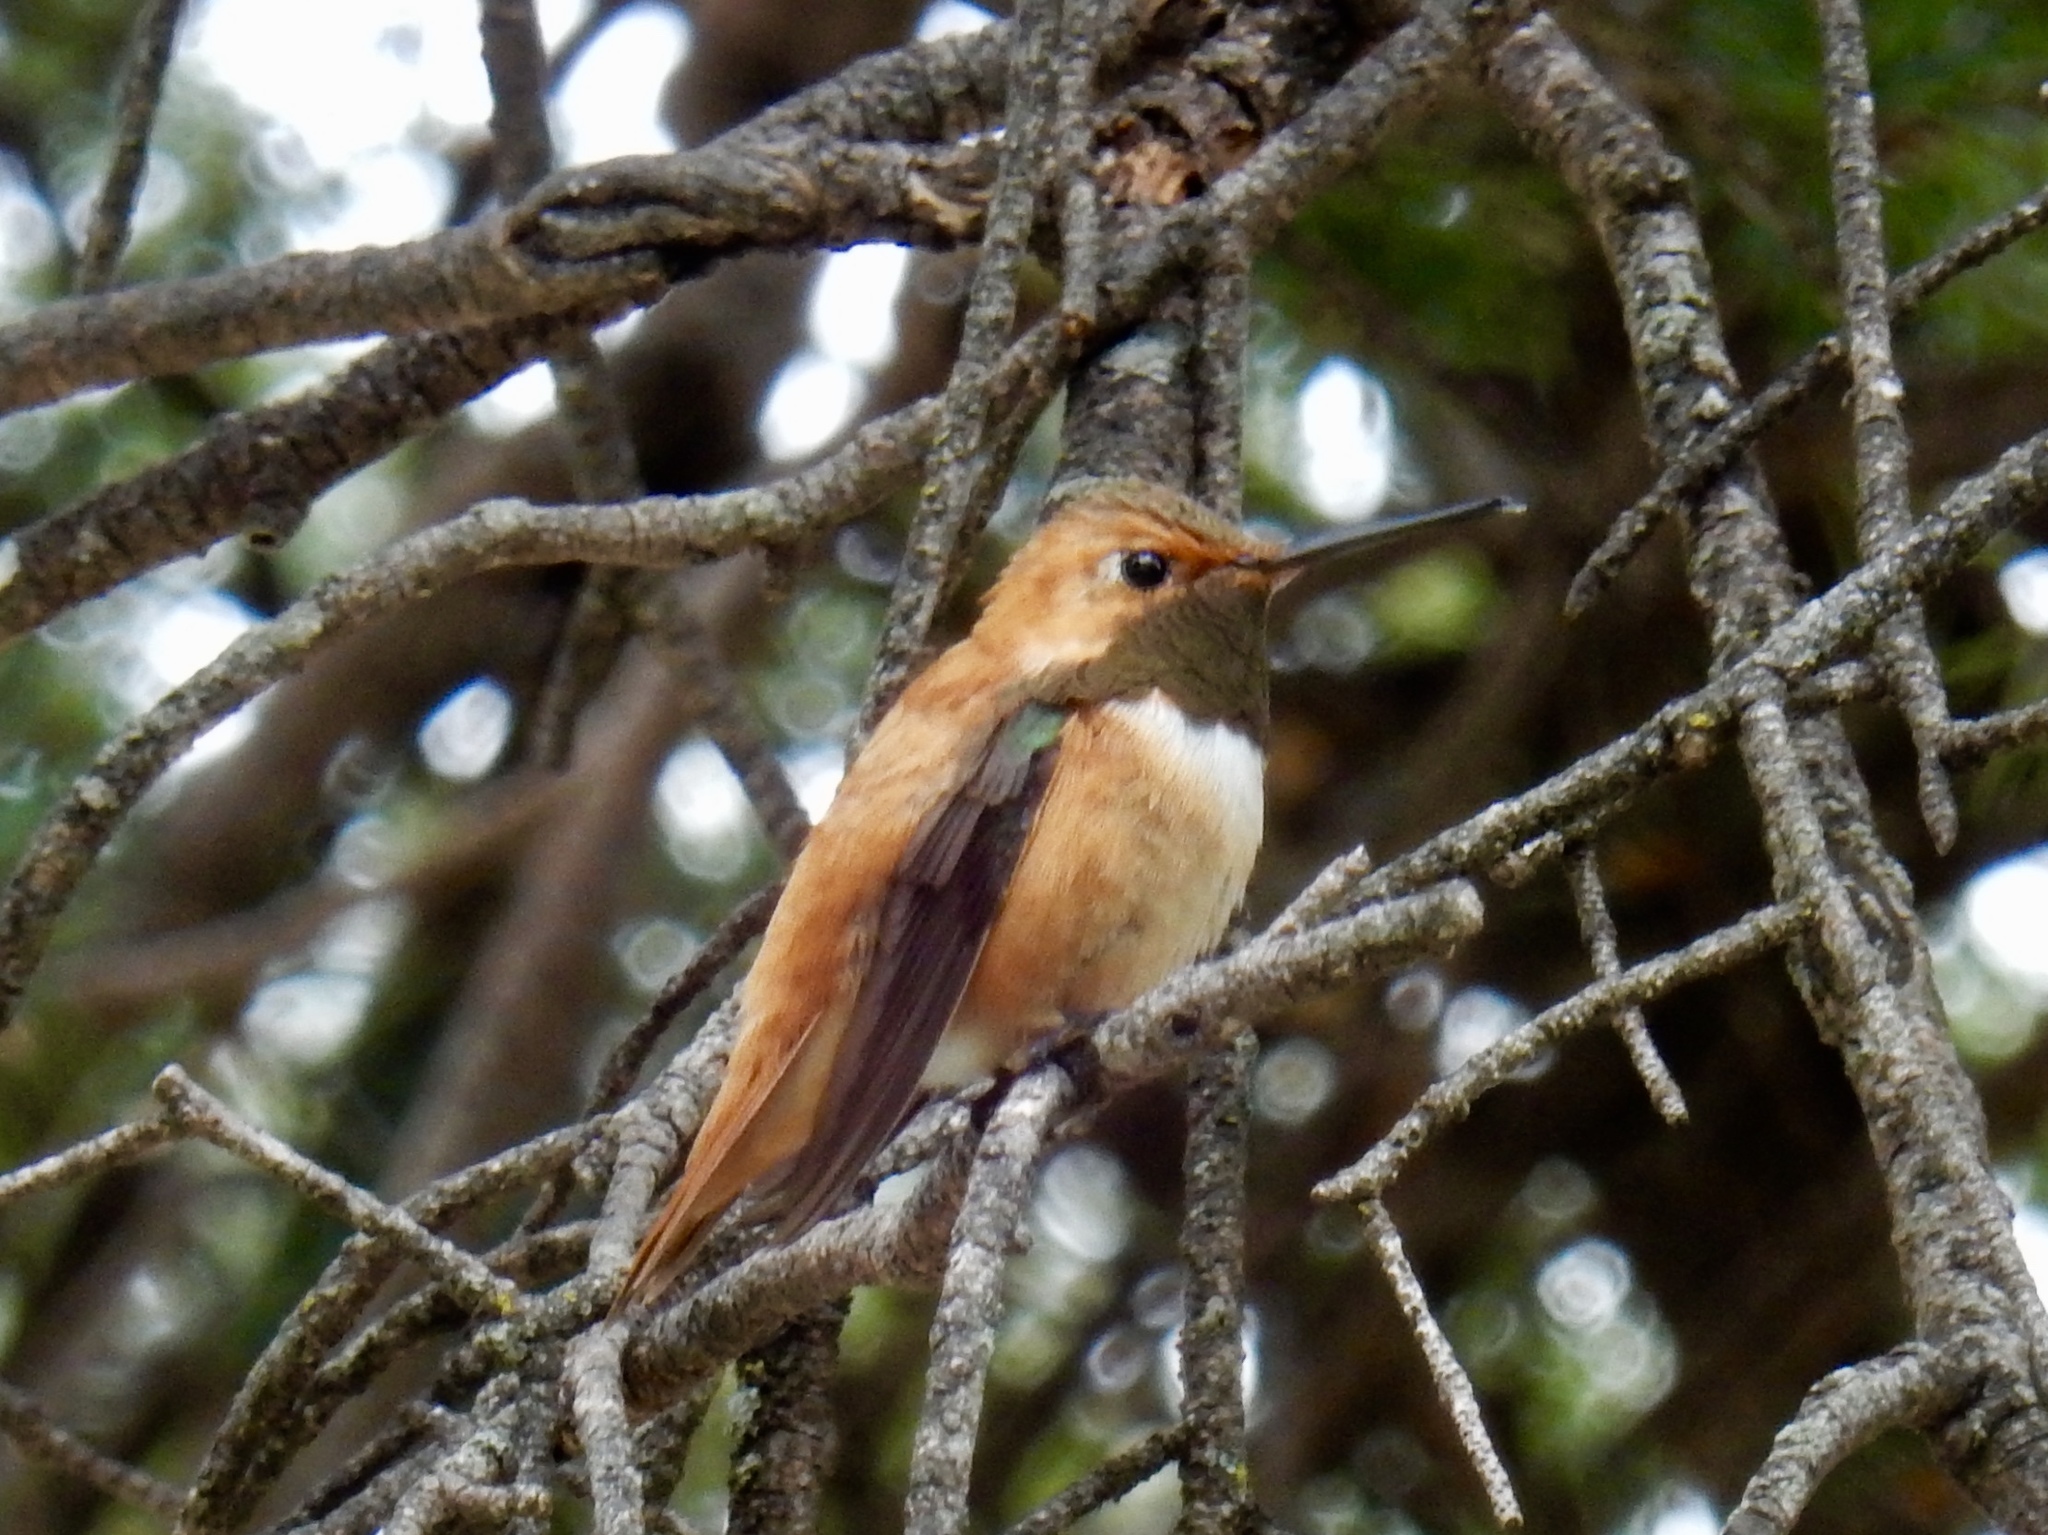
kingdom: Animalia
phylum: Chordata
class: Aves
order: Apodiformes
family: Trochilidae
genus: Selasphorus
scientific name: Selasphorus rufus
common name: Rufous hummingbird
